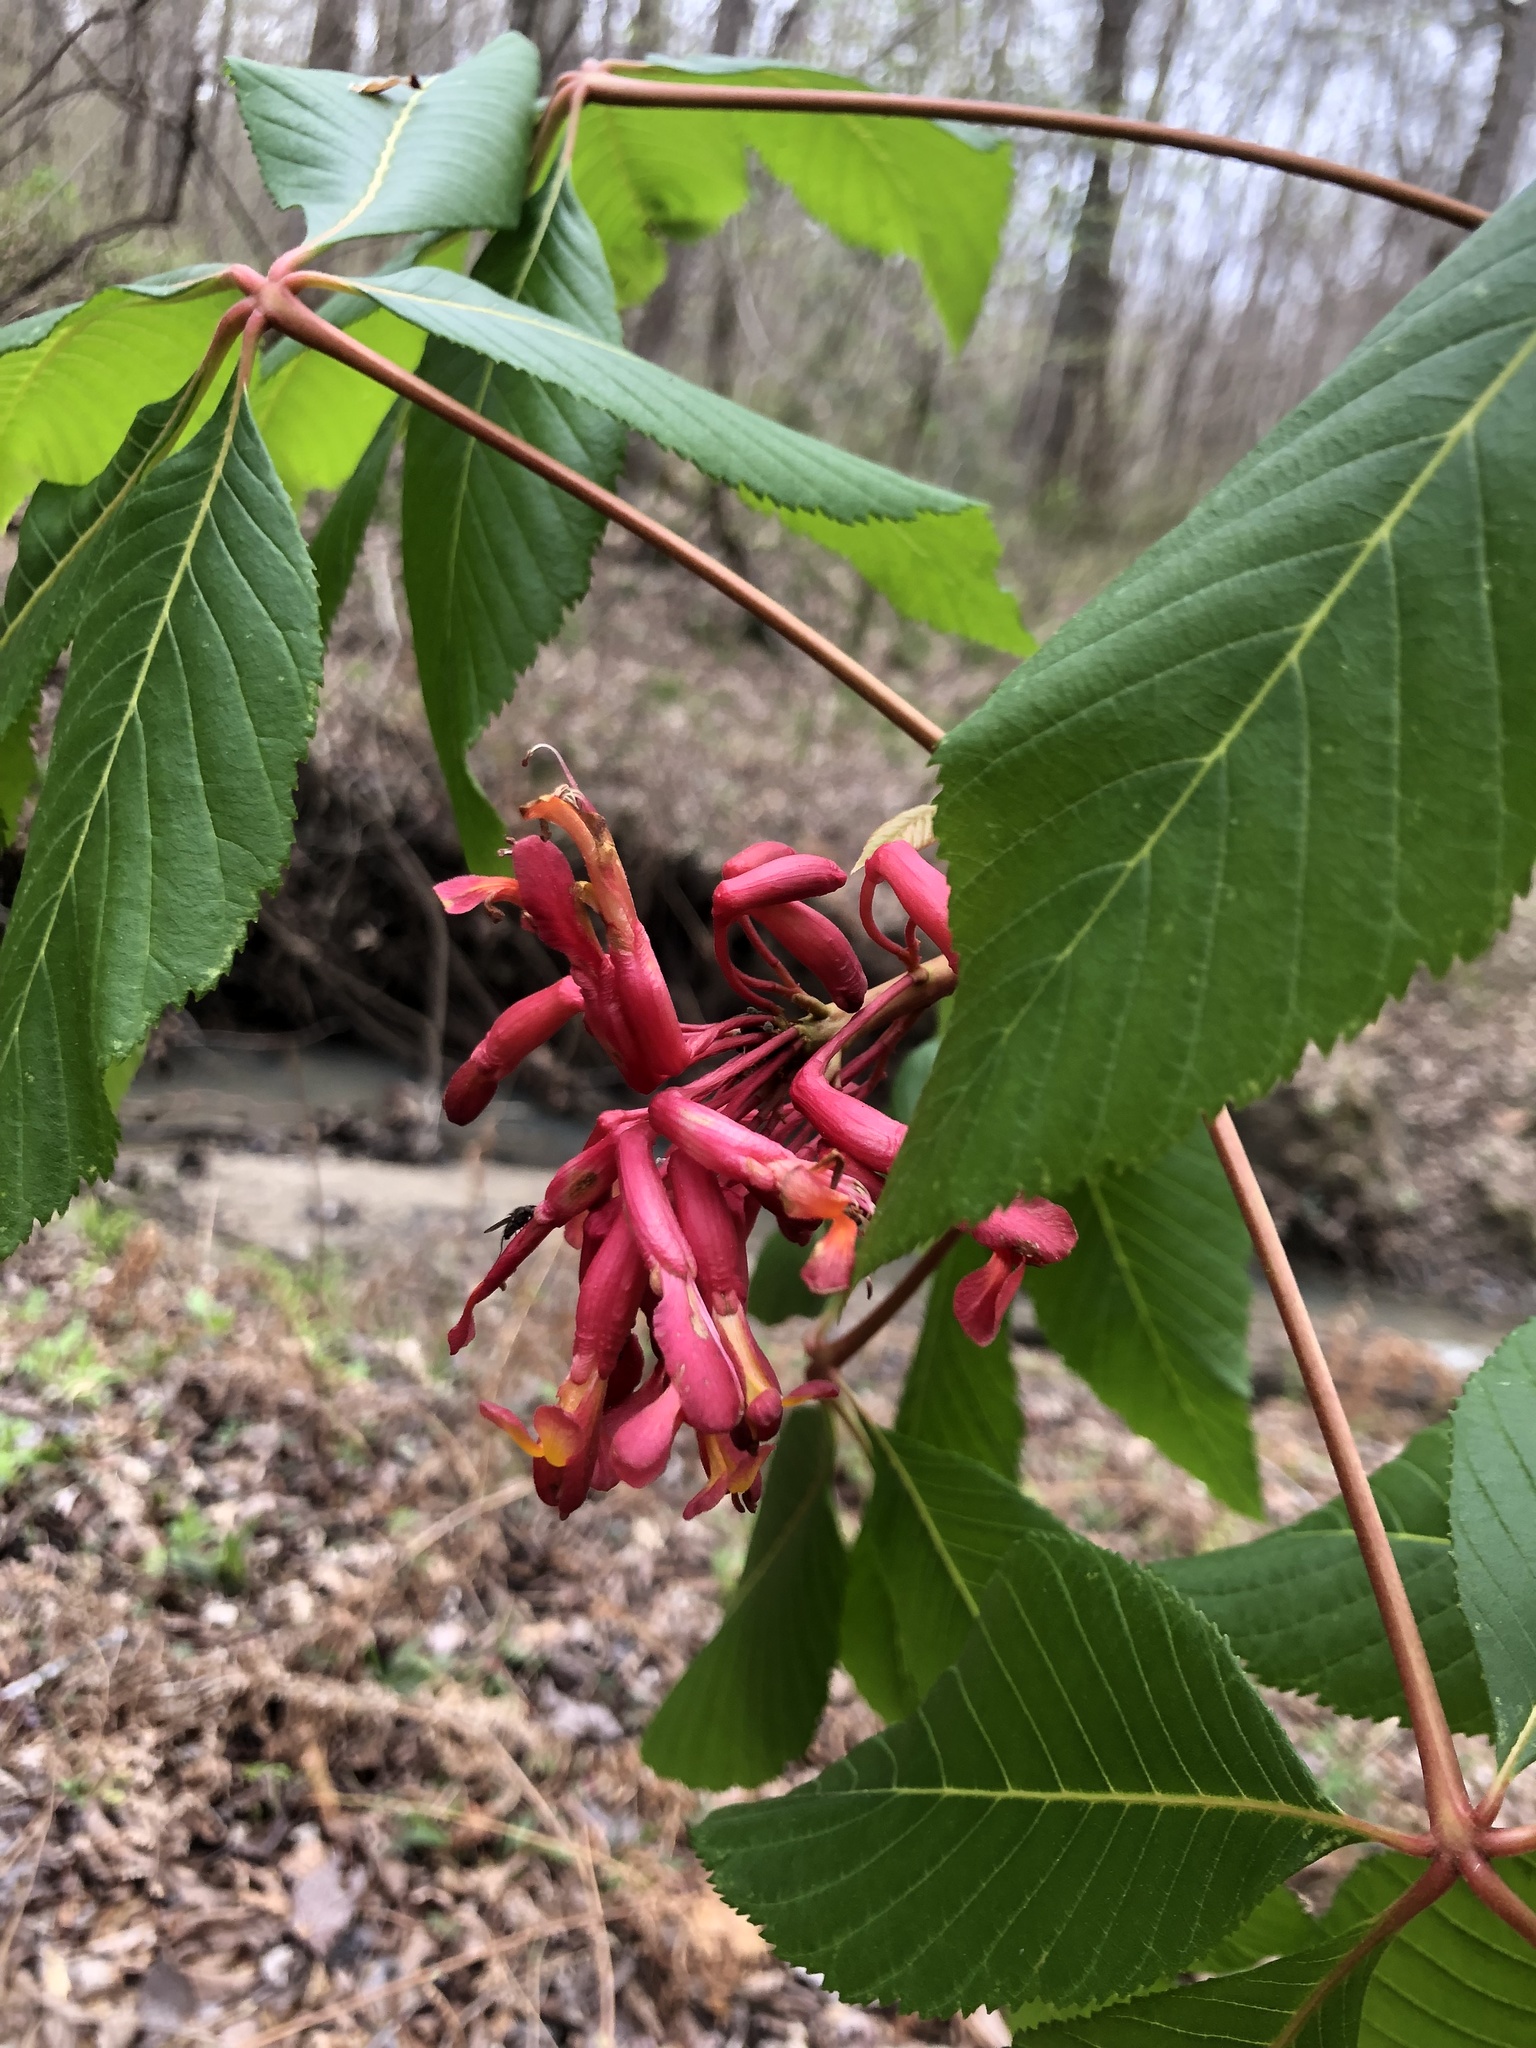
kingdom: Plantae
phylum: Tracheophyta
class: Magnoliopsida
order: Sapindales
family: Sapindaceae
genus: Aesculus
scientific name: Aesculus pavia
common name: Red buckeye
